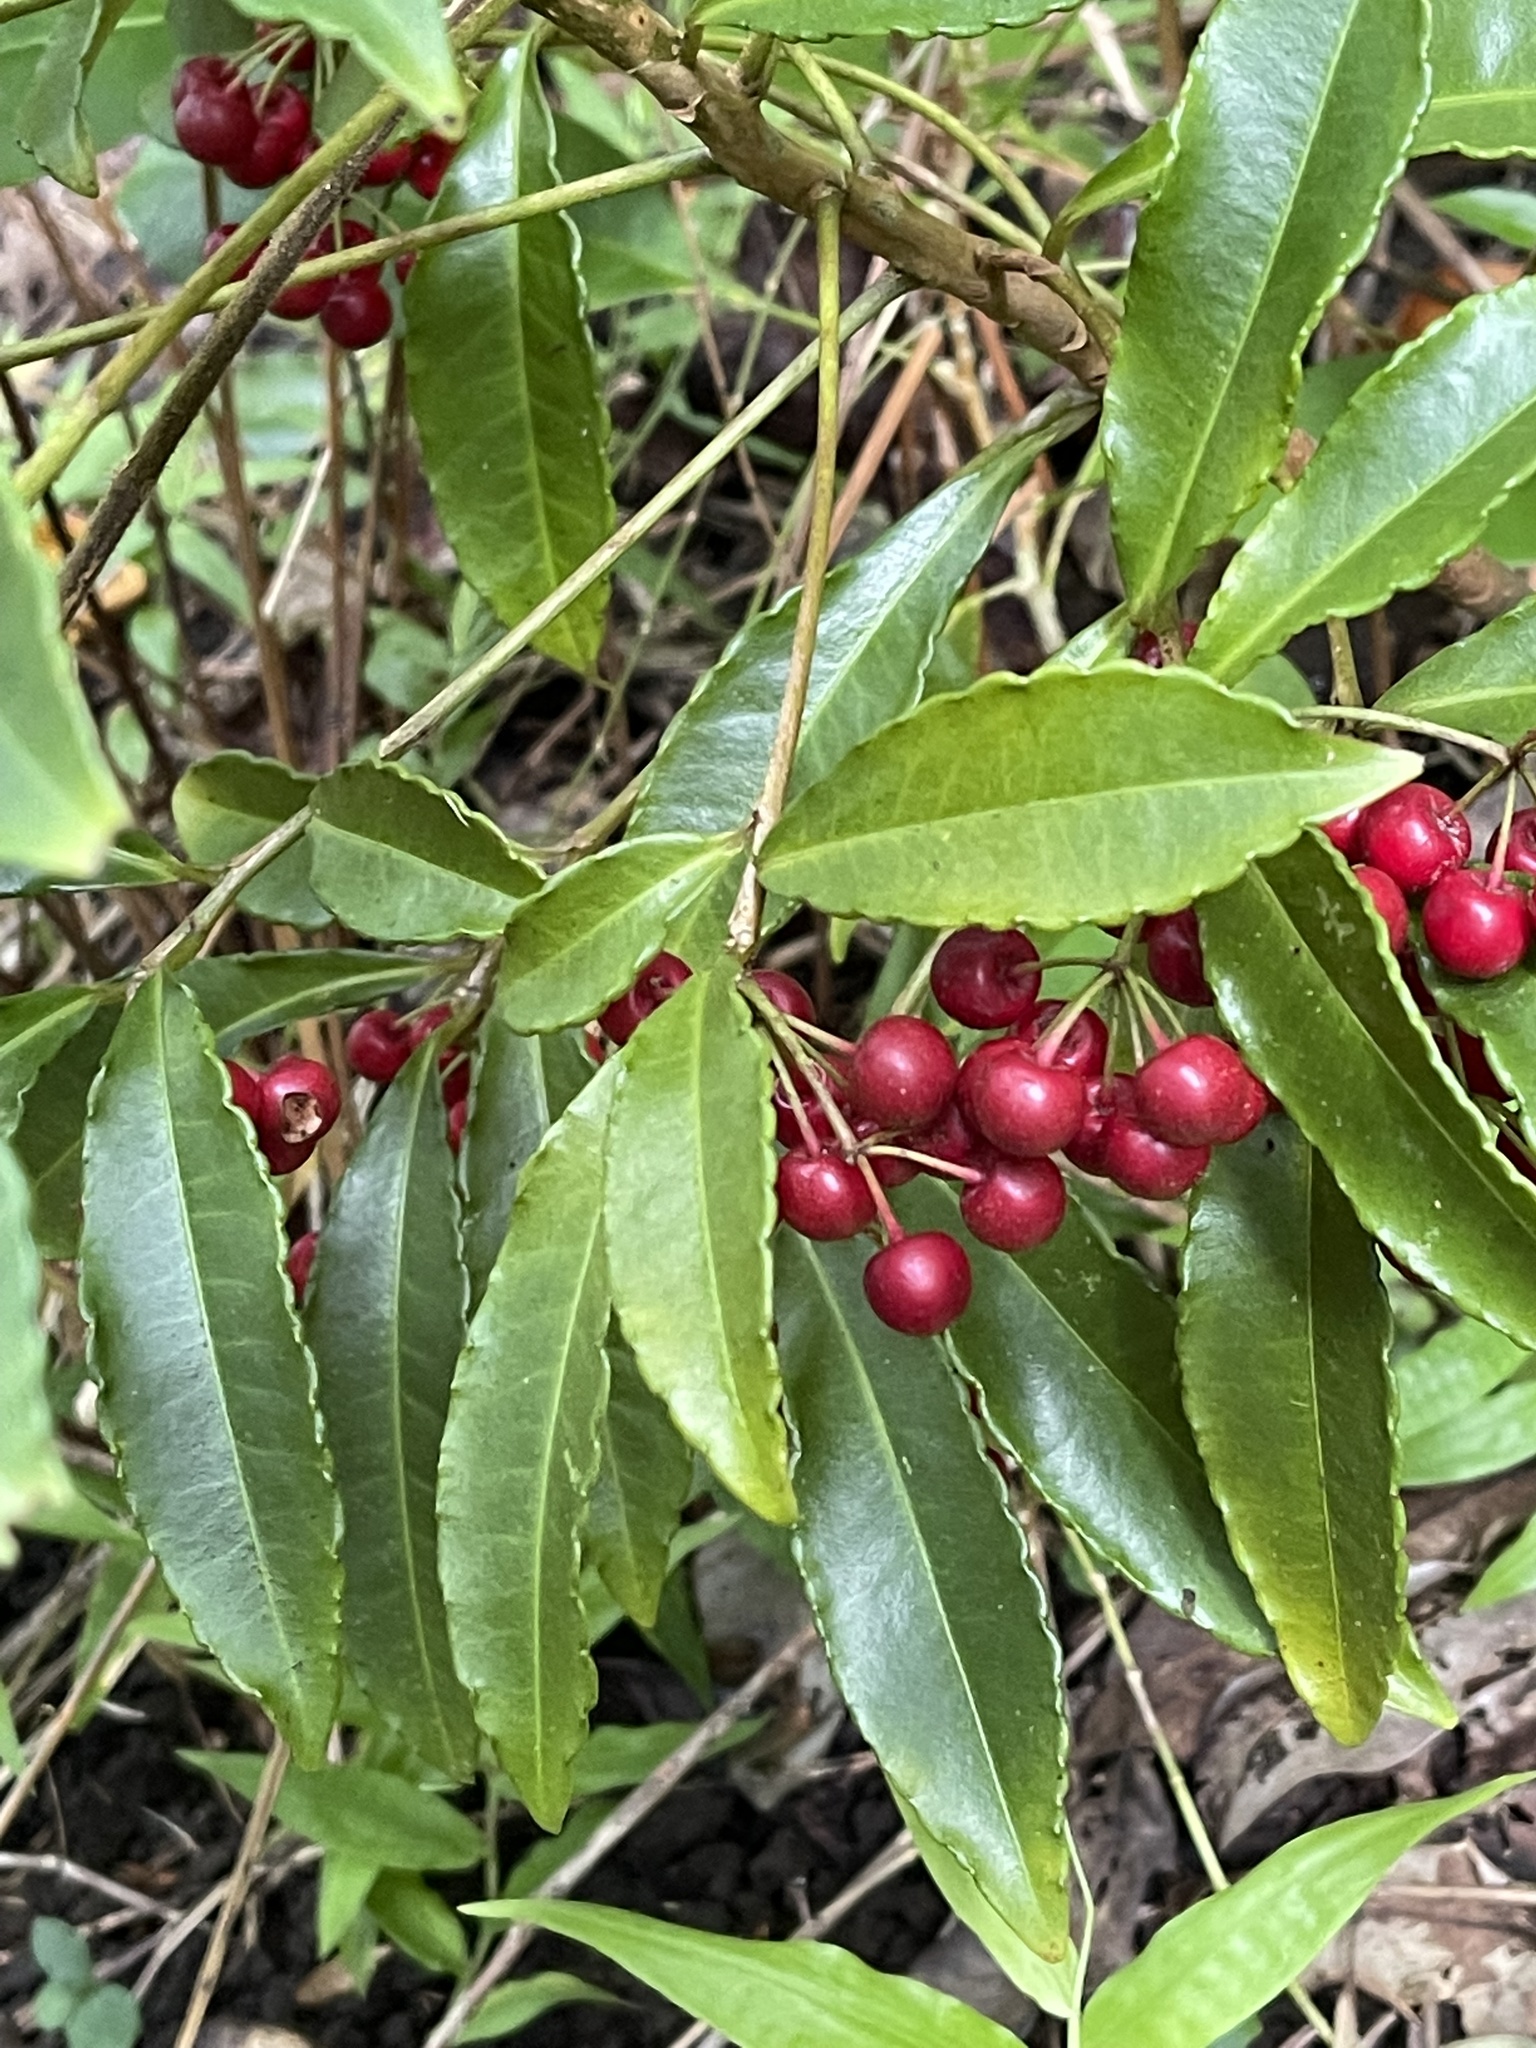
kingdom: Plantae
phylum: Tracheophyta
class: Magnoliopsida
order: Ericales
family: Primulaceae
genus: Ardisia
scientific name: Ardisia crenata
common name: Hen's eyes
